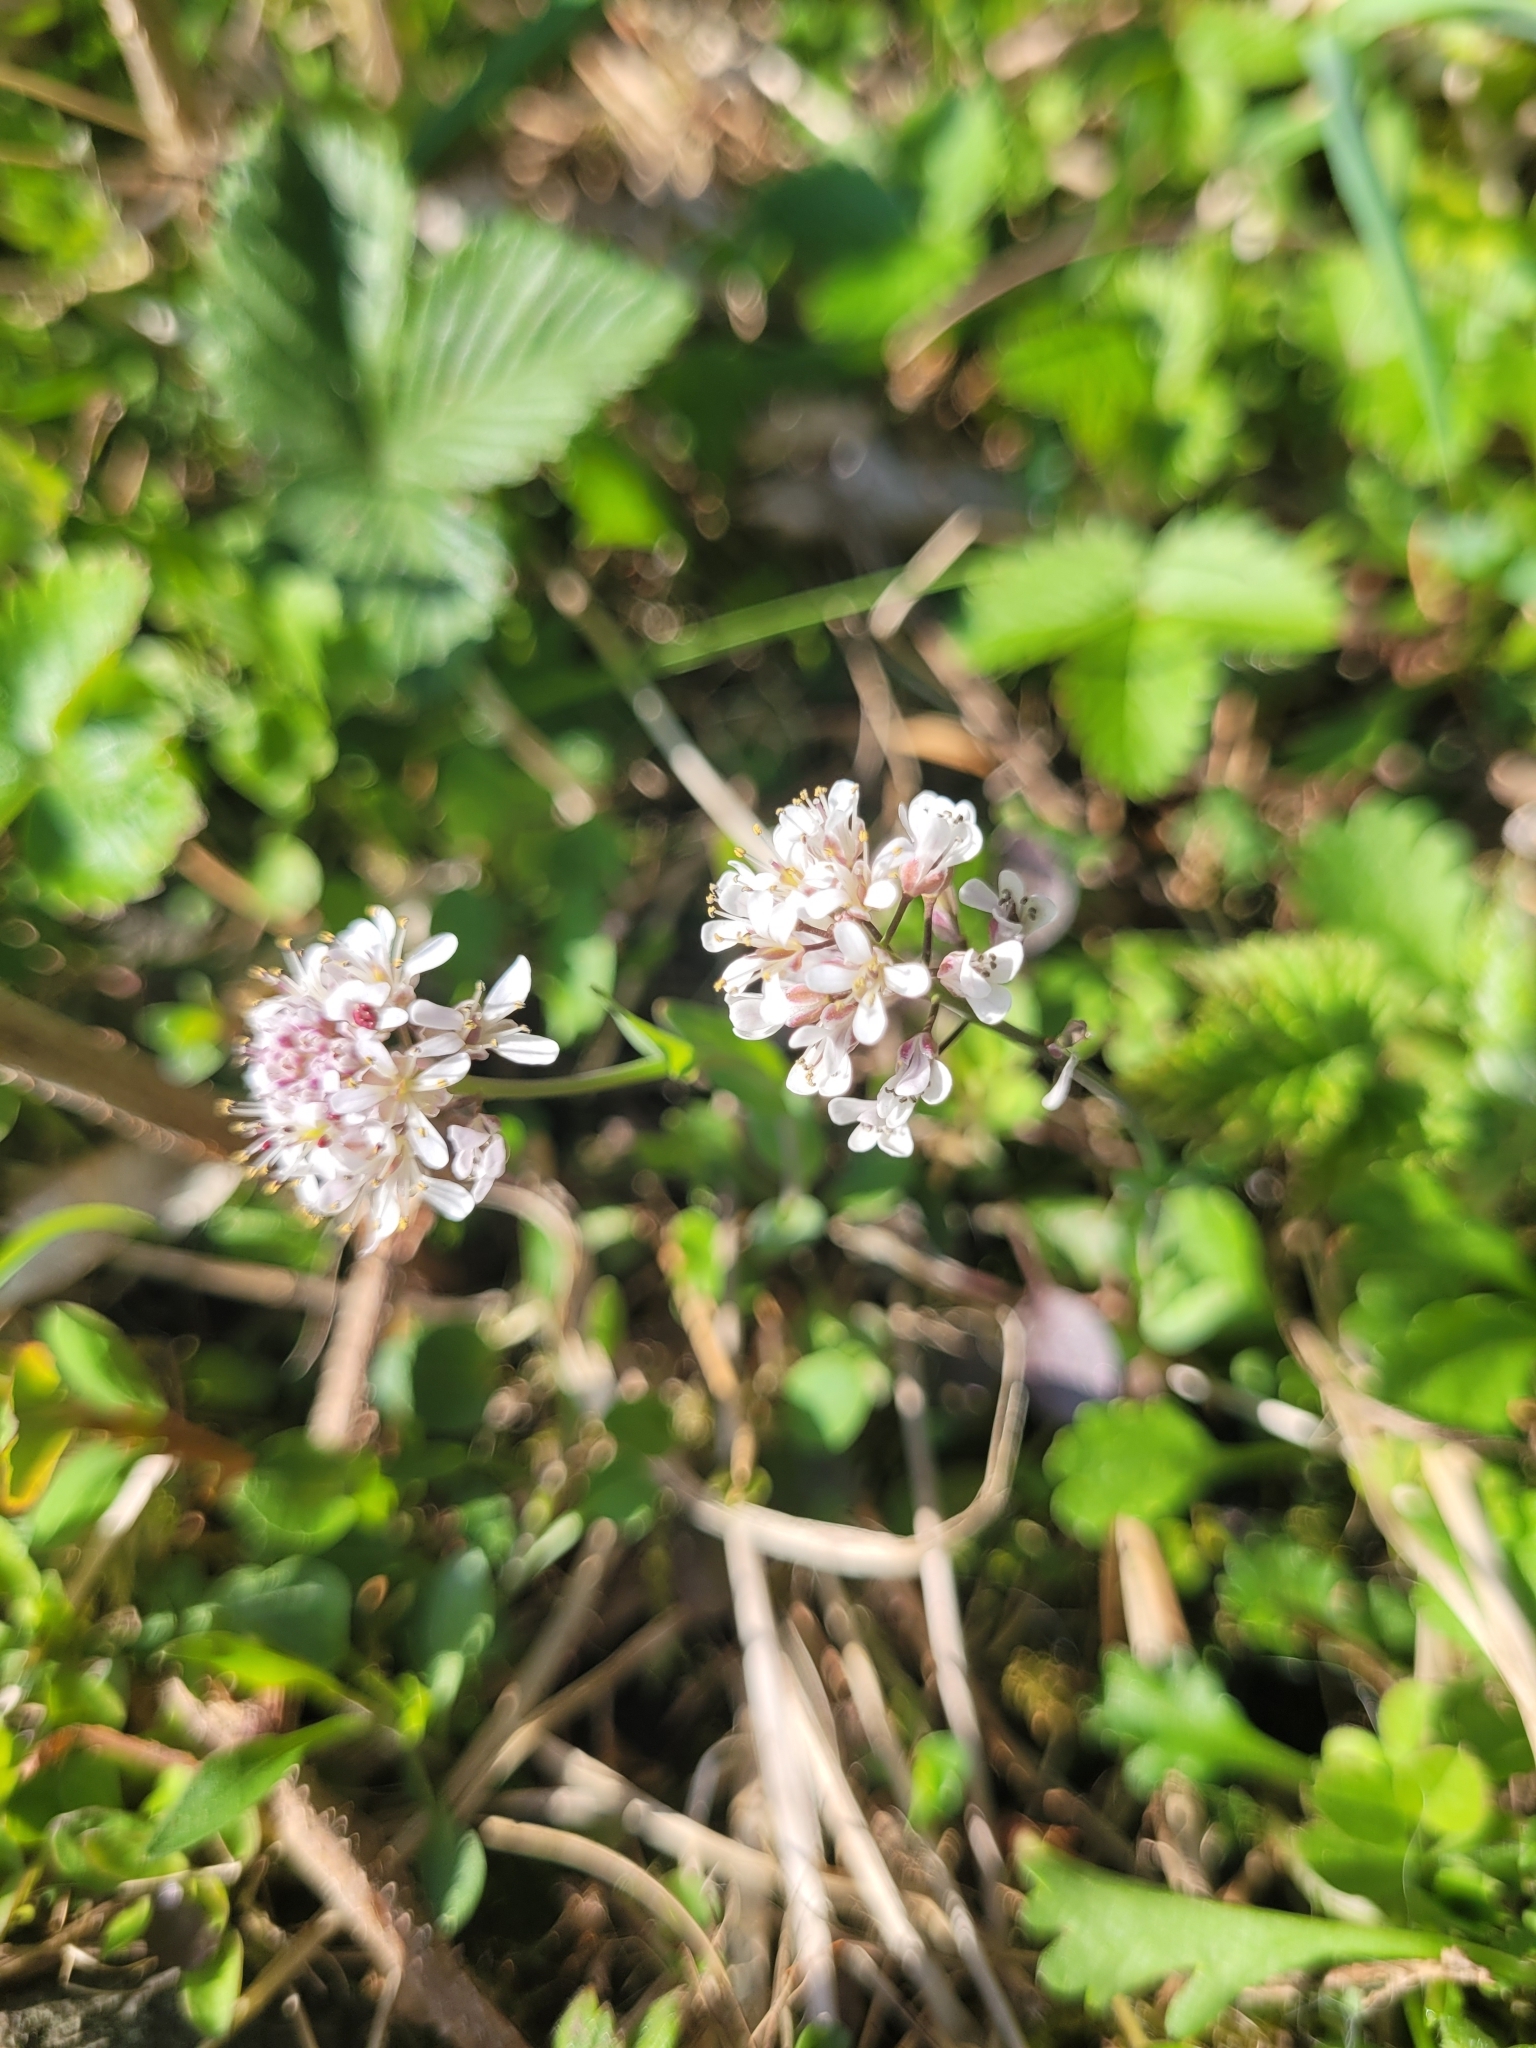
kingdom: Plantae
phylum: Tracheophyta
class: Magnoliopsida
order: Brassicales
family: Brassicaceae
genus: Noccaea
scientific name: Noccaea caerulescens
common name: Alpine pennycress
